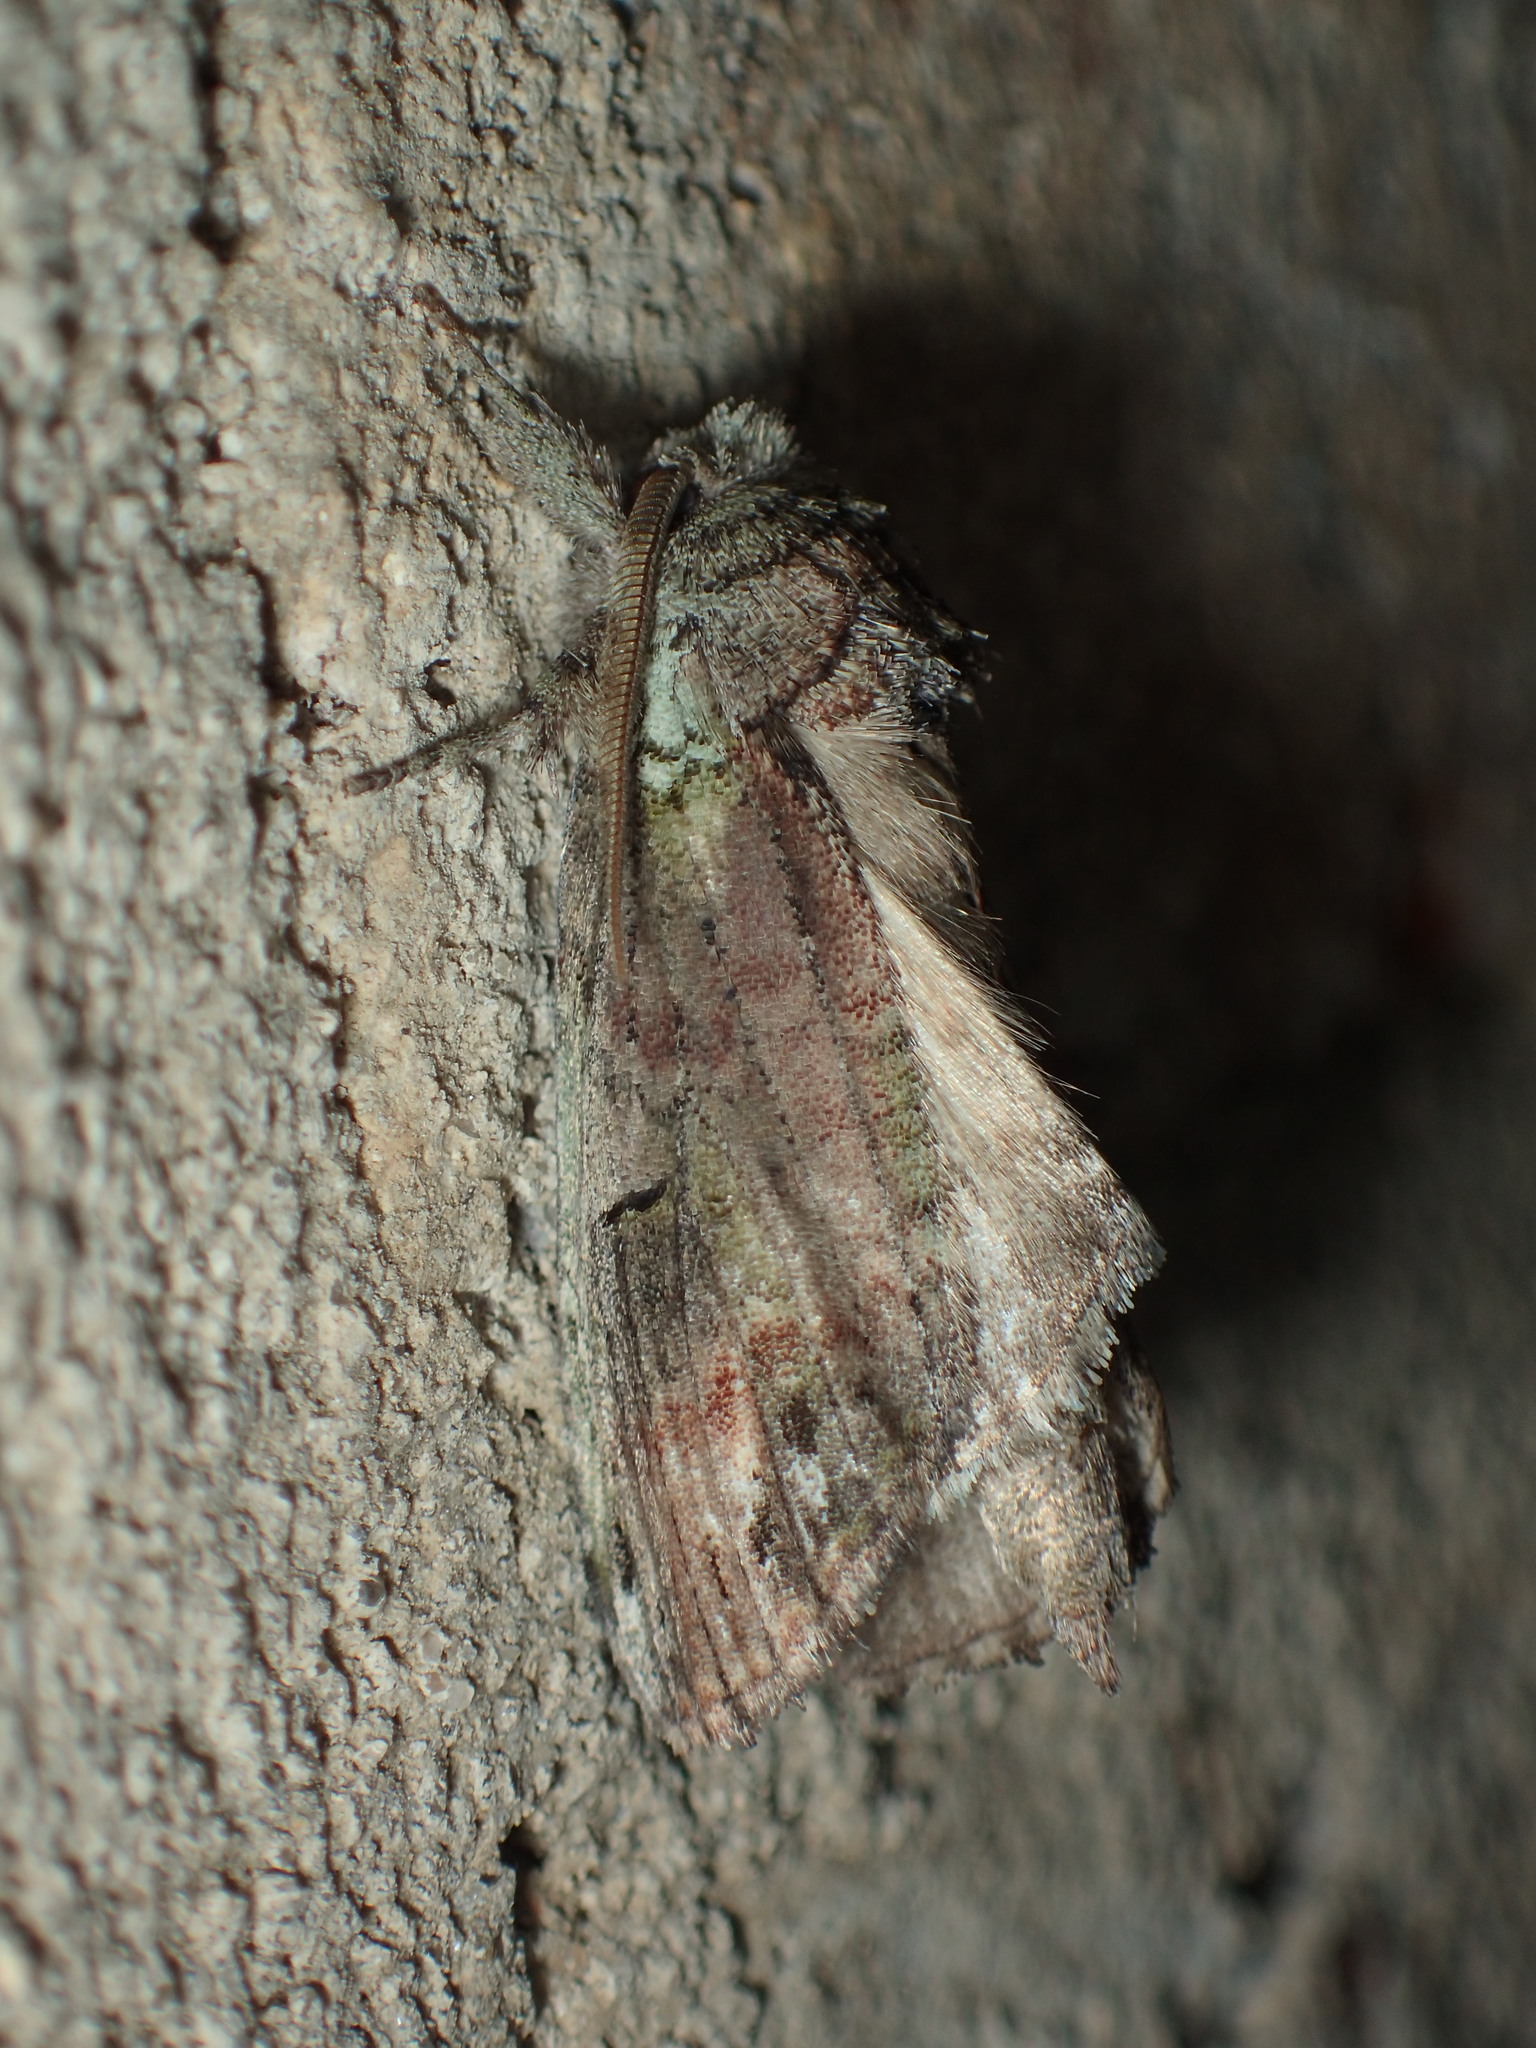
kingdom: Animalia
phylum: Arthropoda
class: Insecta
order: Lepidoptera
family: Notodontidae
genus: Schizura
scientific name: Schizura
